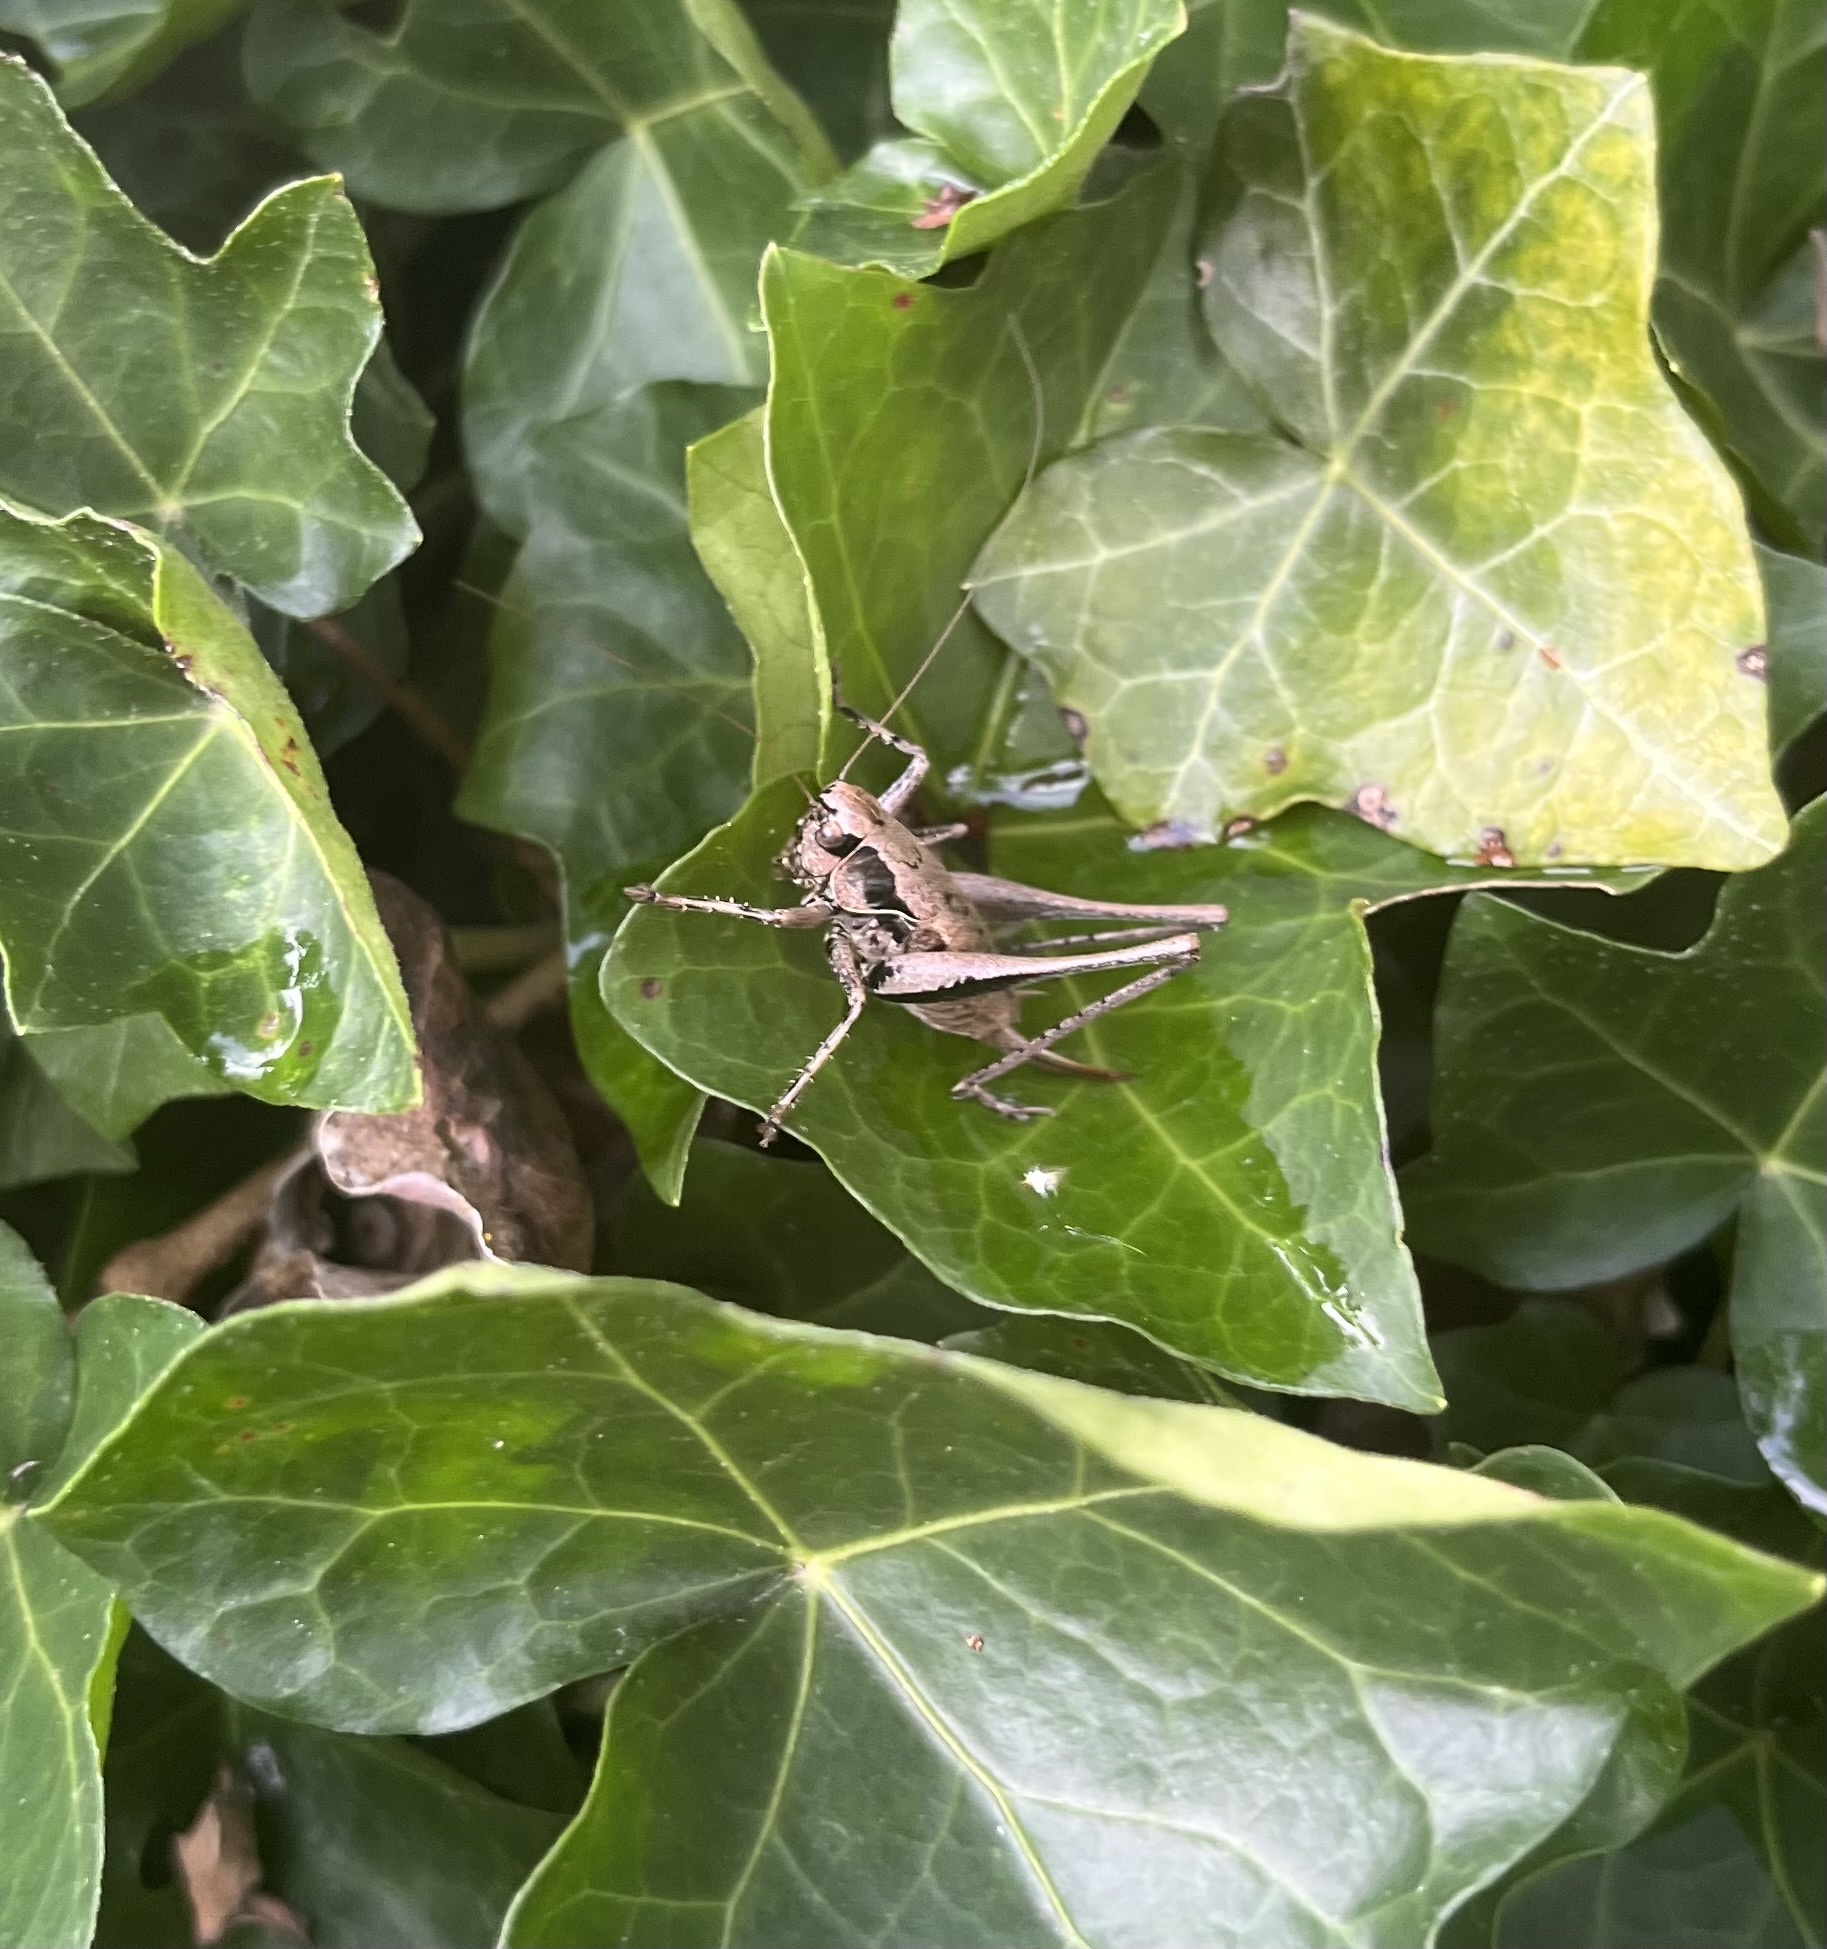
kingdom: Animalia
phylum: Arthropoda
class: Insecta
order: Orthoptera
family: Tettigoniidae
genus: Pholidoptera
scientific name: Pholidoptera griseoaptera
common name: Dark bush-cricket
